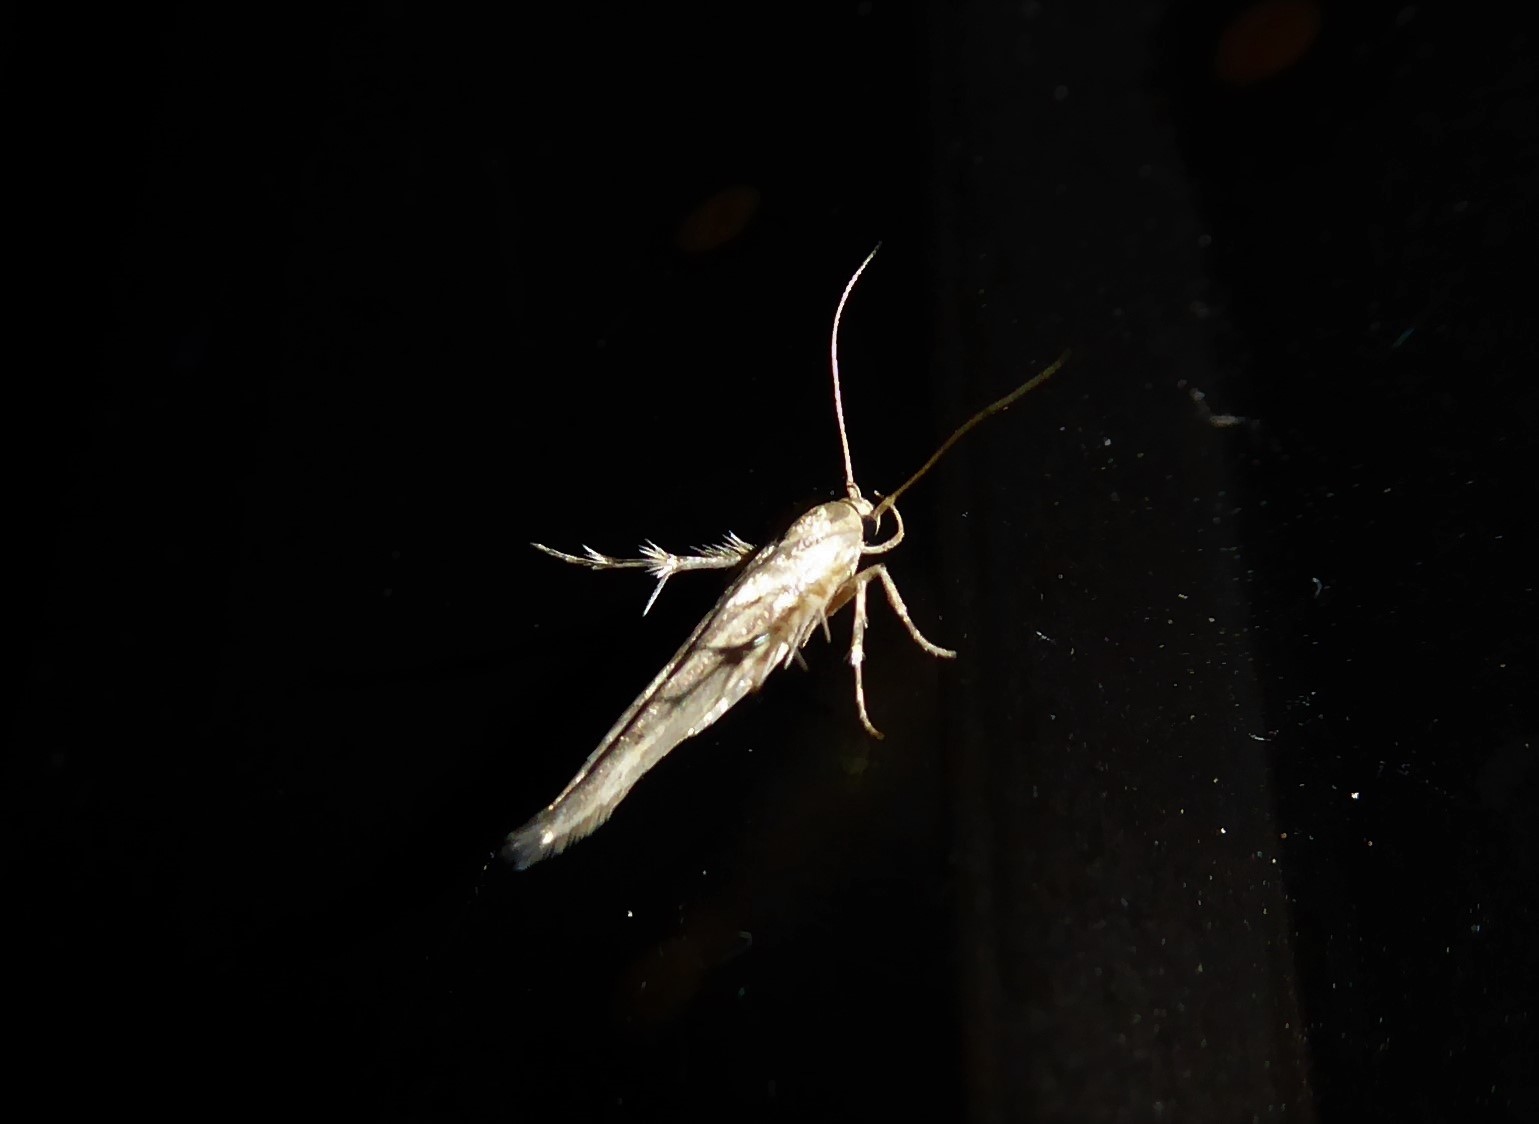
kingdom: Animalia
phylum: Arthropoda
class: Insecta
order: Lepidoptera
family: Stathmopodidae
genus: Stathmopoda
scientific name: Stathmopoda plumbiflua
